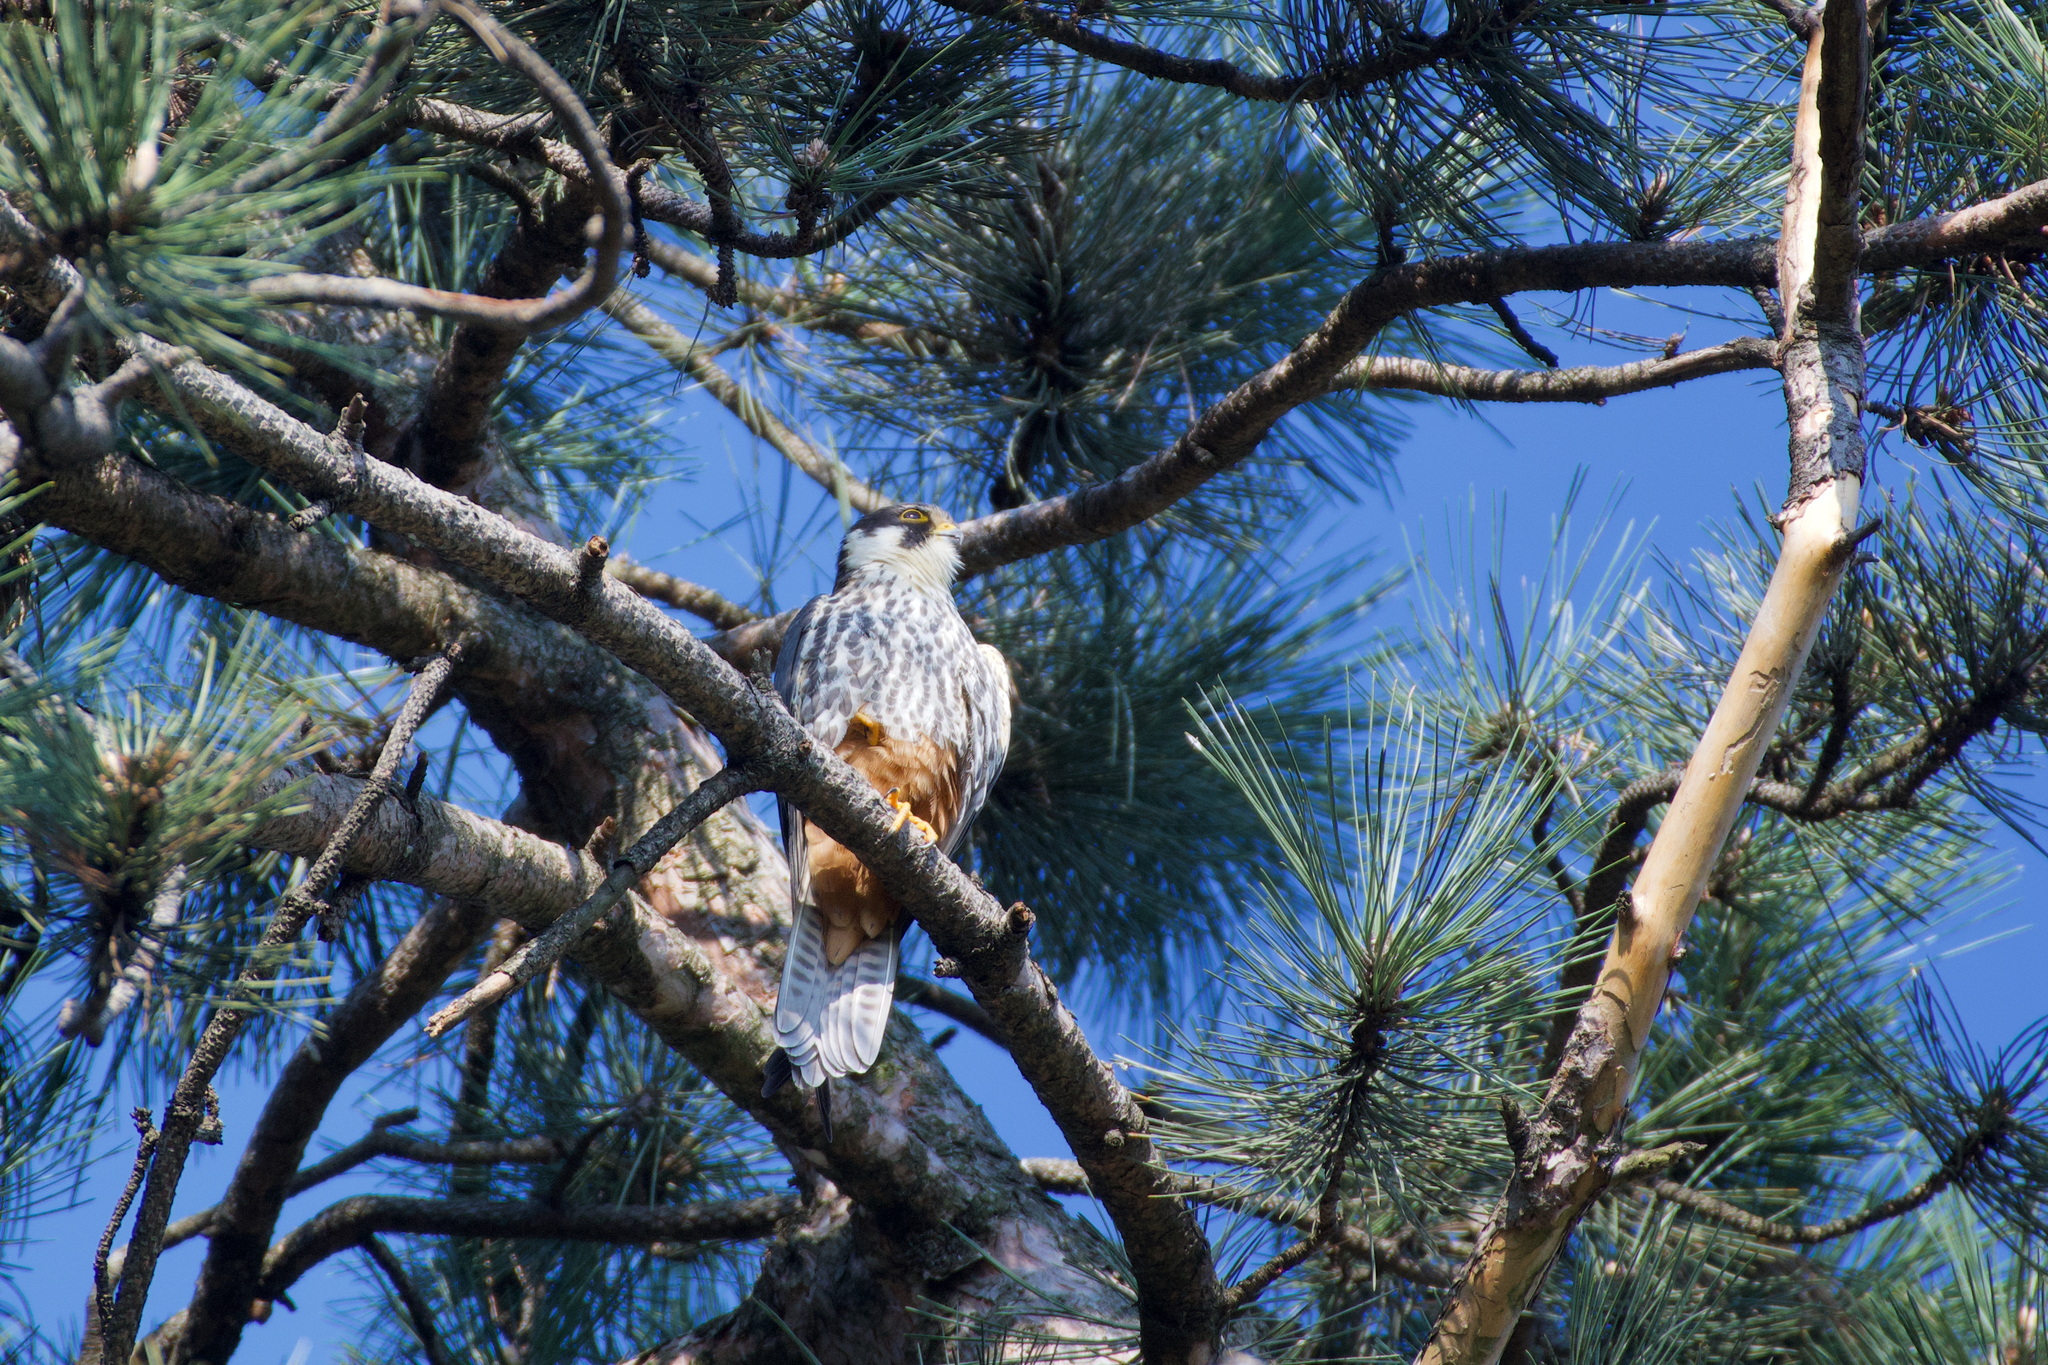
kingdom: Animalia
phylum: Chordata
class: Aves
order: Falconiformes
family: Falconidae
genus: Falco
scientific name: Falco subbuteo
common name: Eurasian hobby
